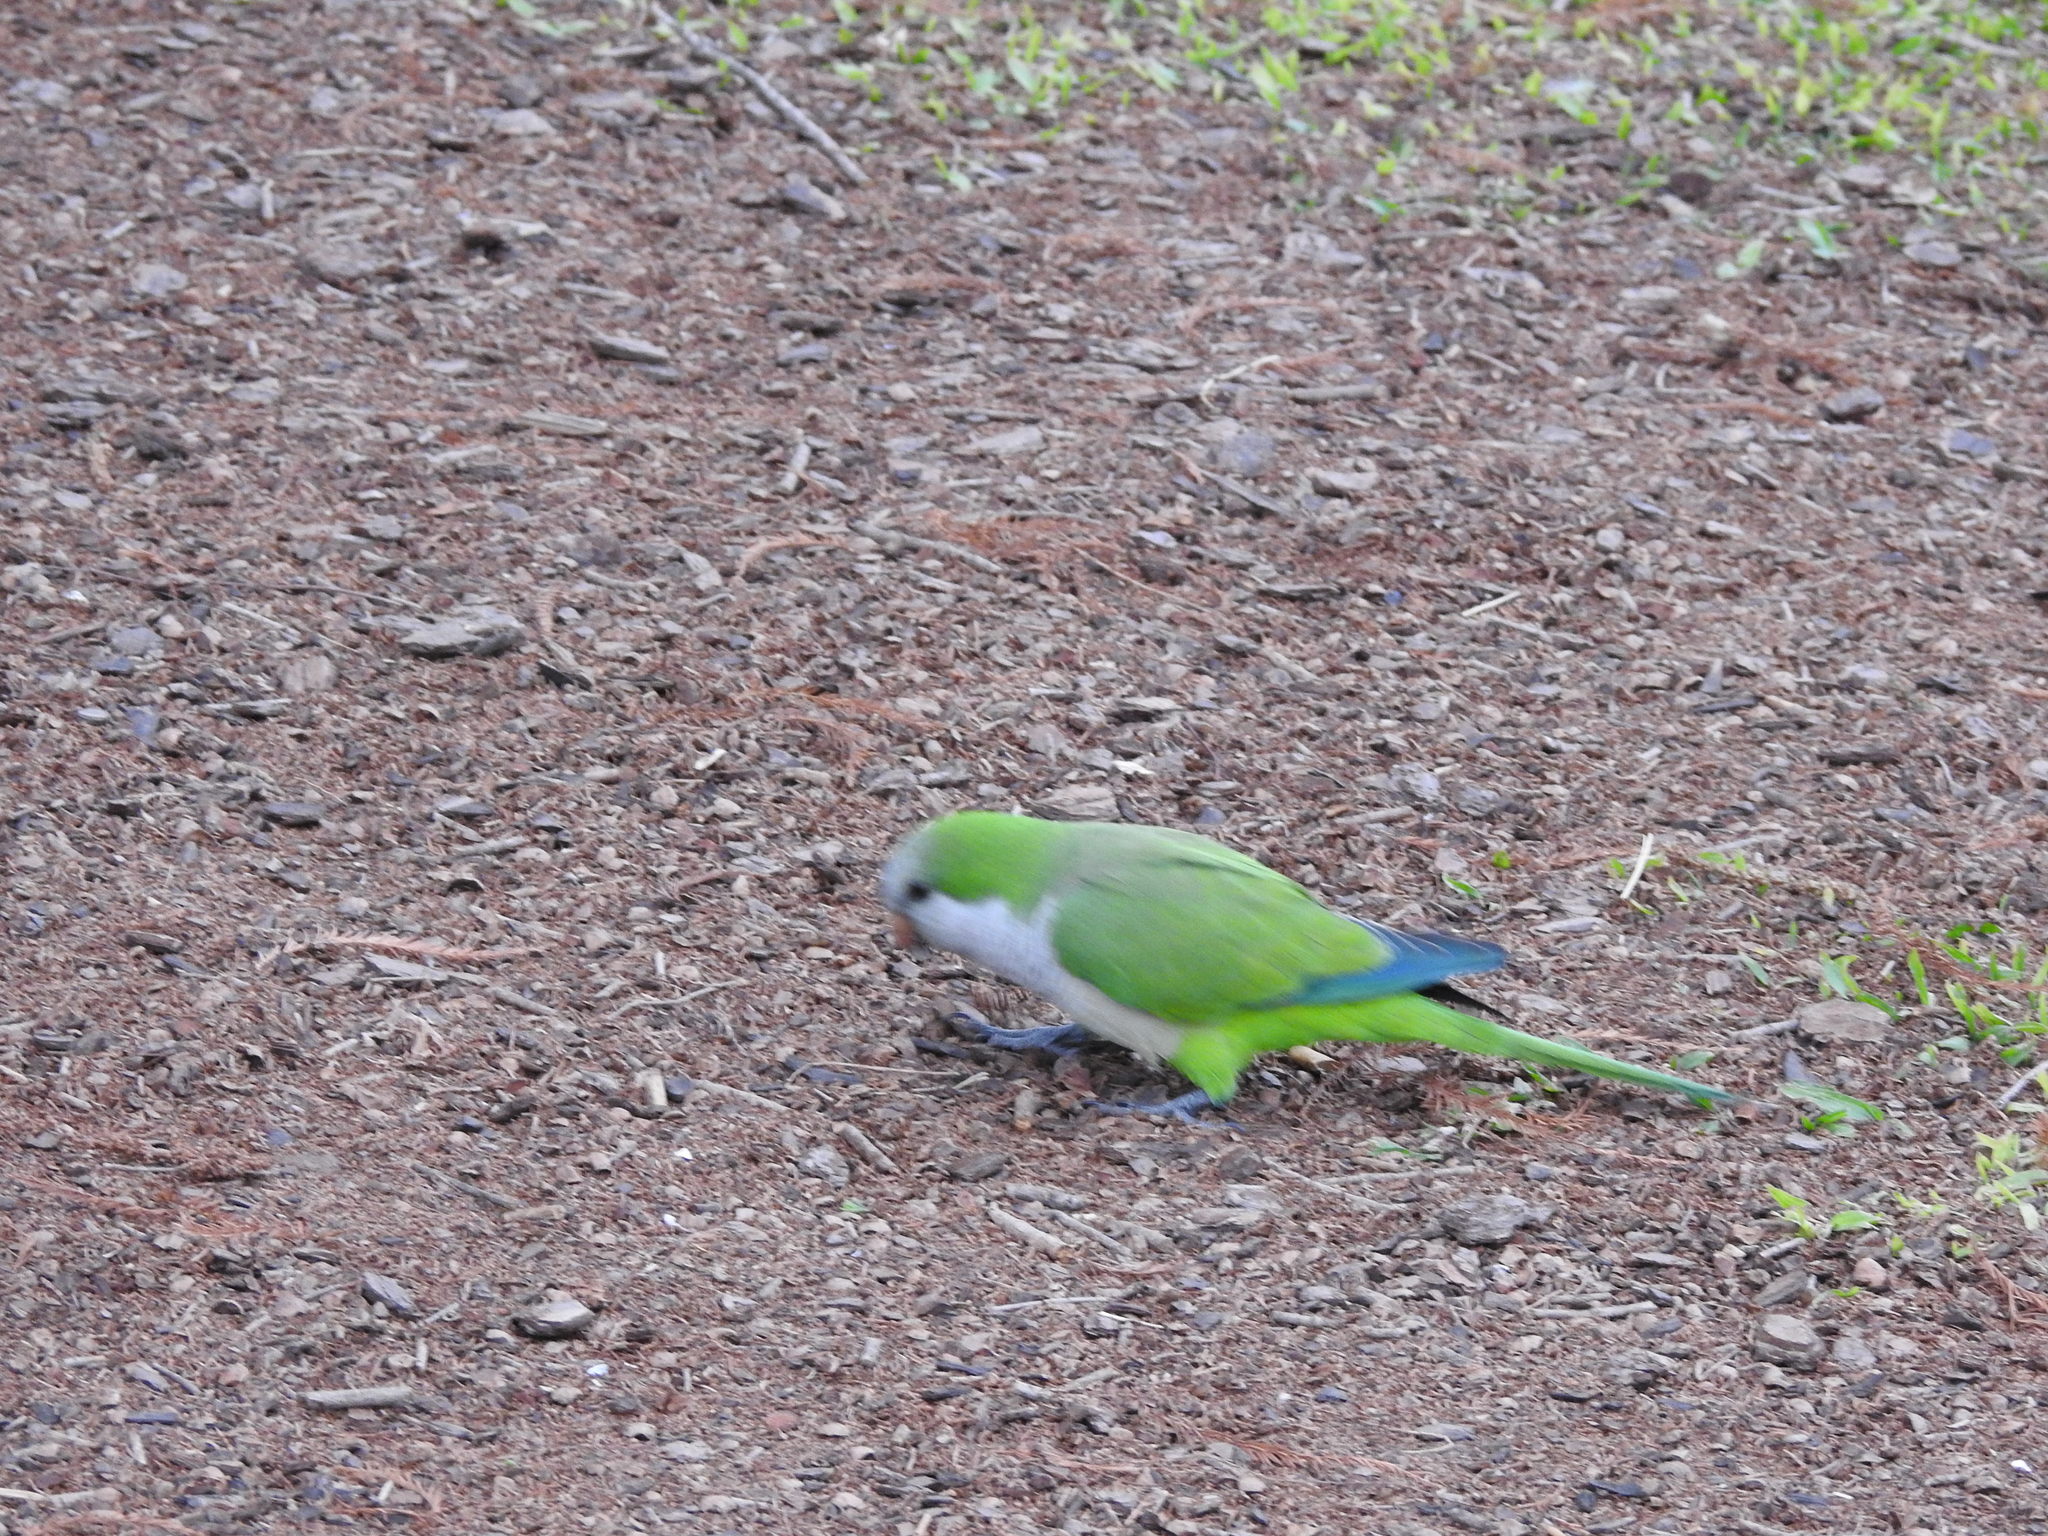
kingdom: Animalia
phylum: Chordata
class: Aves
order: Psittaciformes
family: Psittacidae
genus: Myiopsitta
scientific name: Myiopsitta monachus
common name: Monk parakeet
